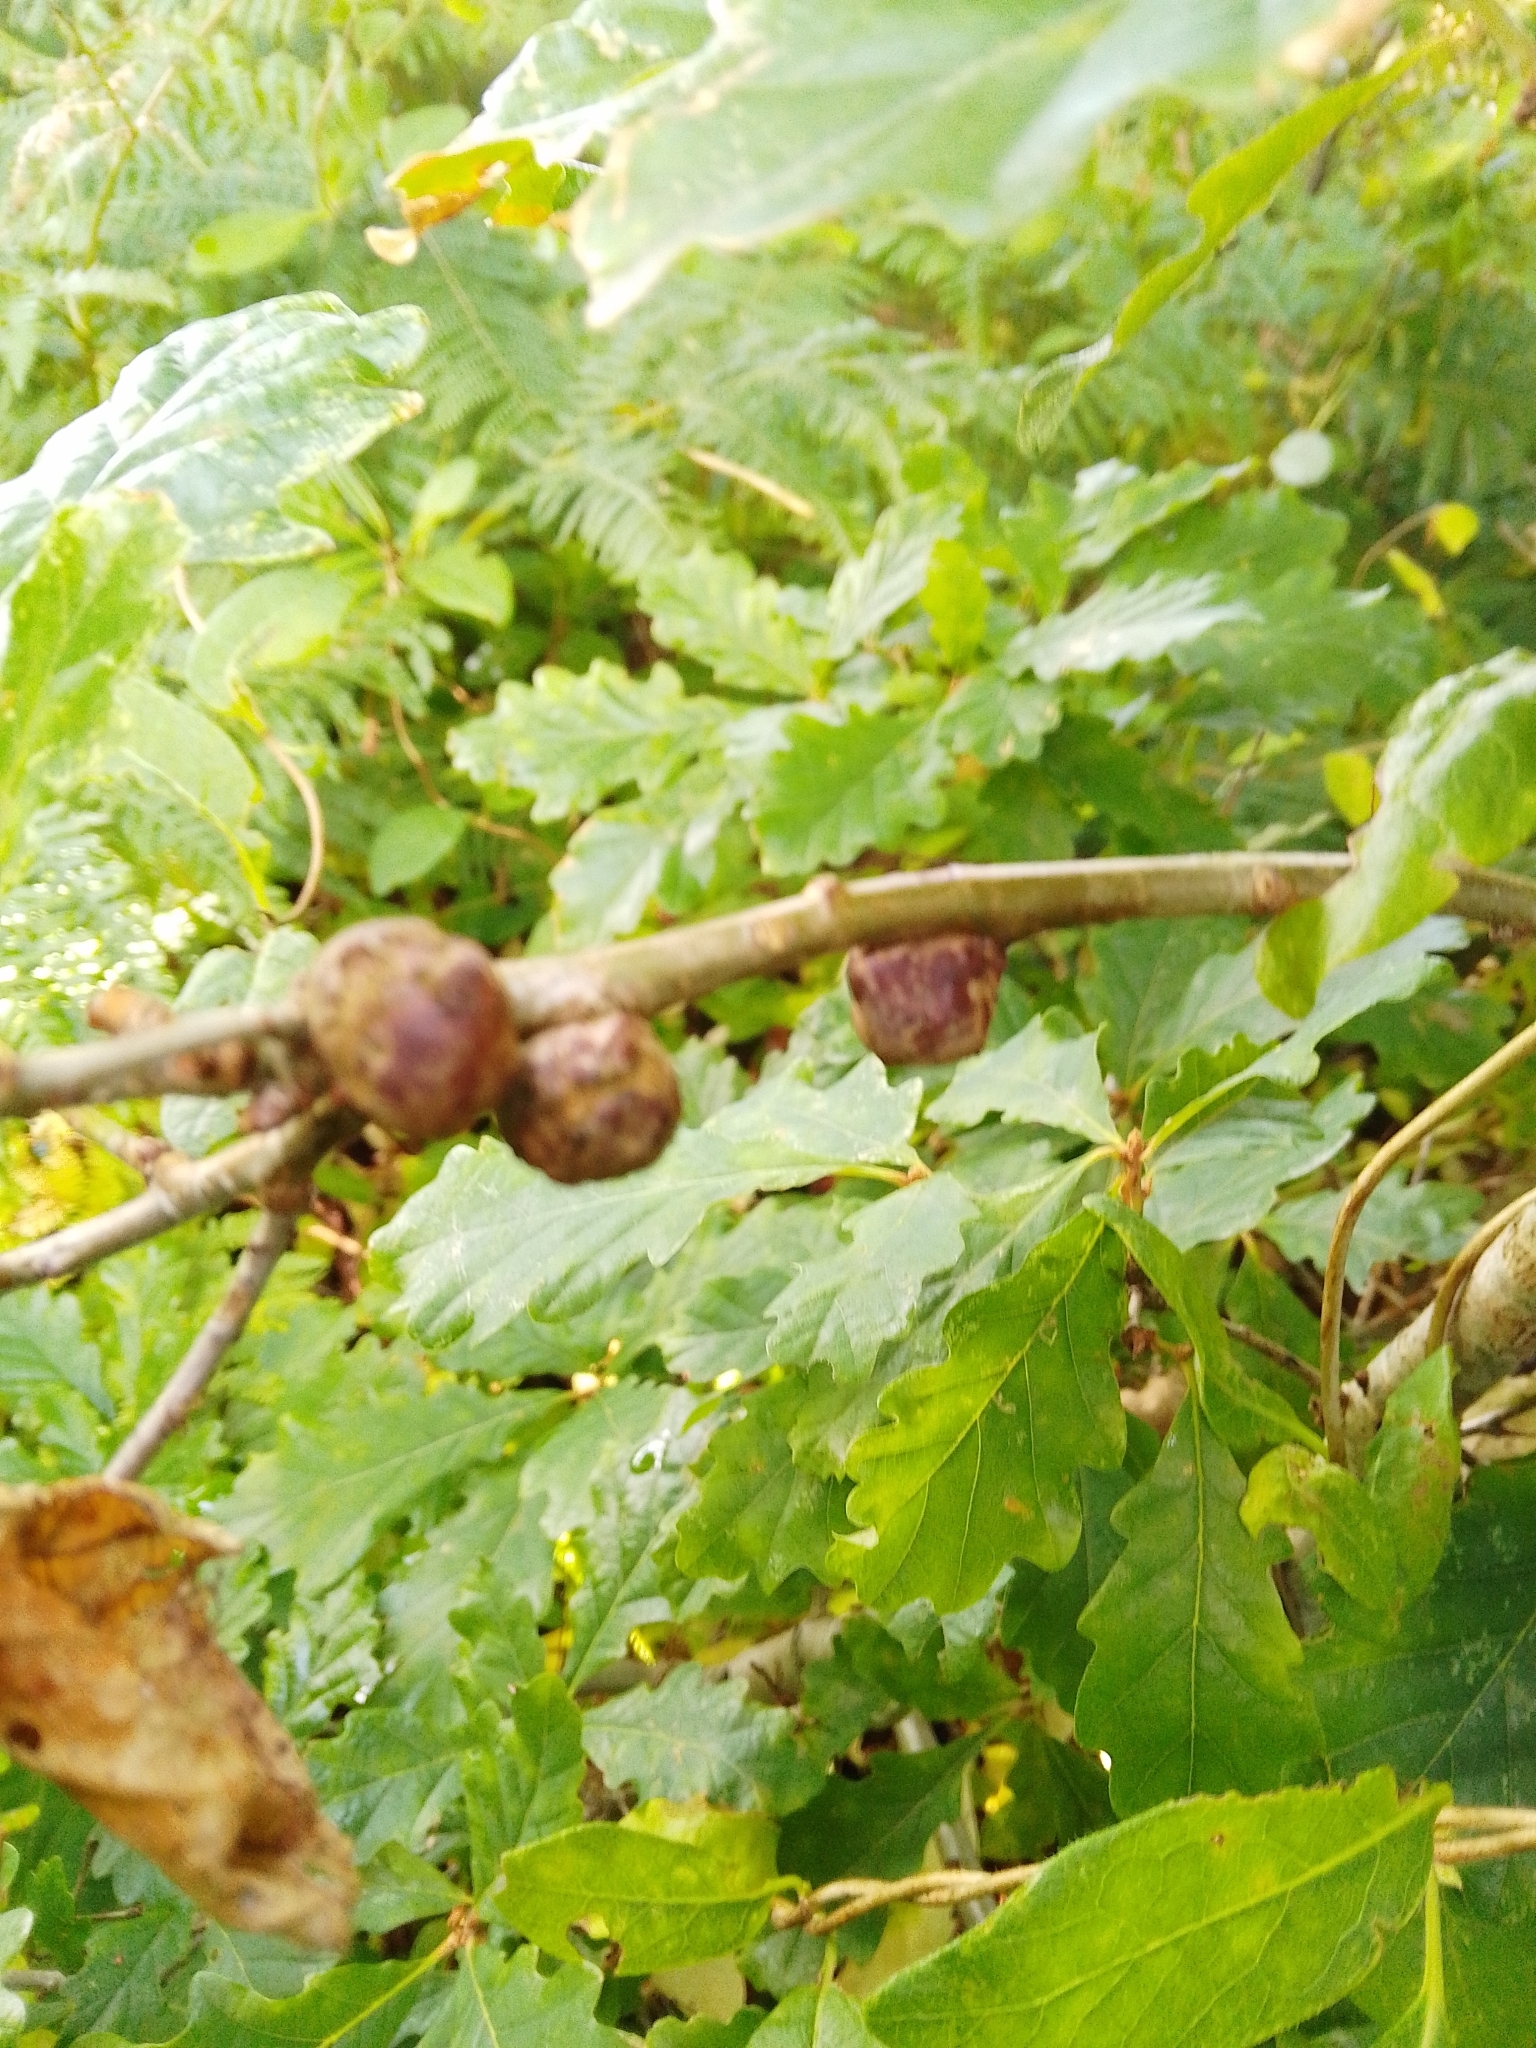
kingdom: Animalia
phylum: Arthropoda
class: Insecta
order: Hymenoptera
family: Cynipidae
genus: Andricus
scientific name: Andricus lignicolus
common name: Cola-nut gall
